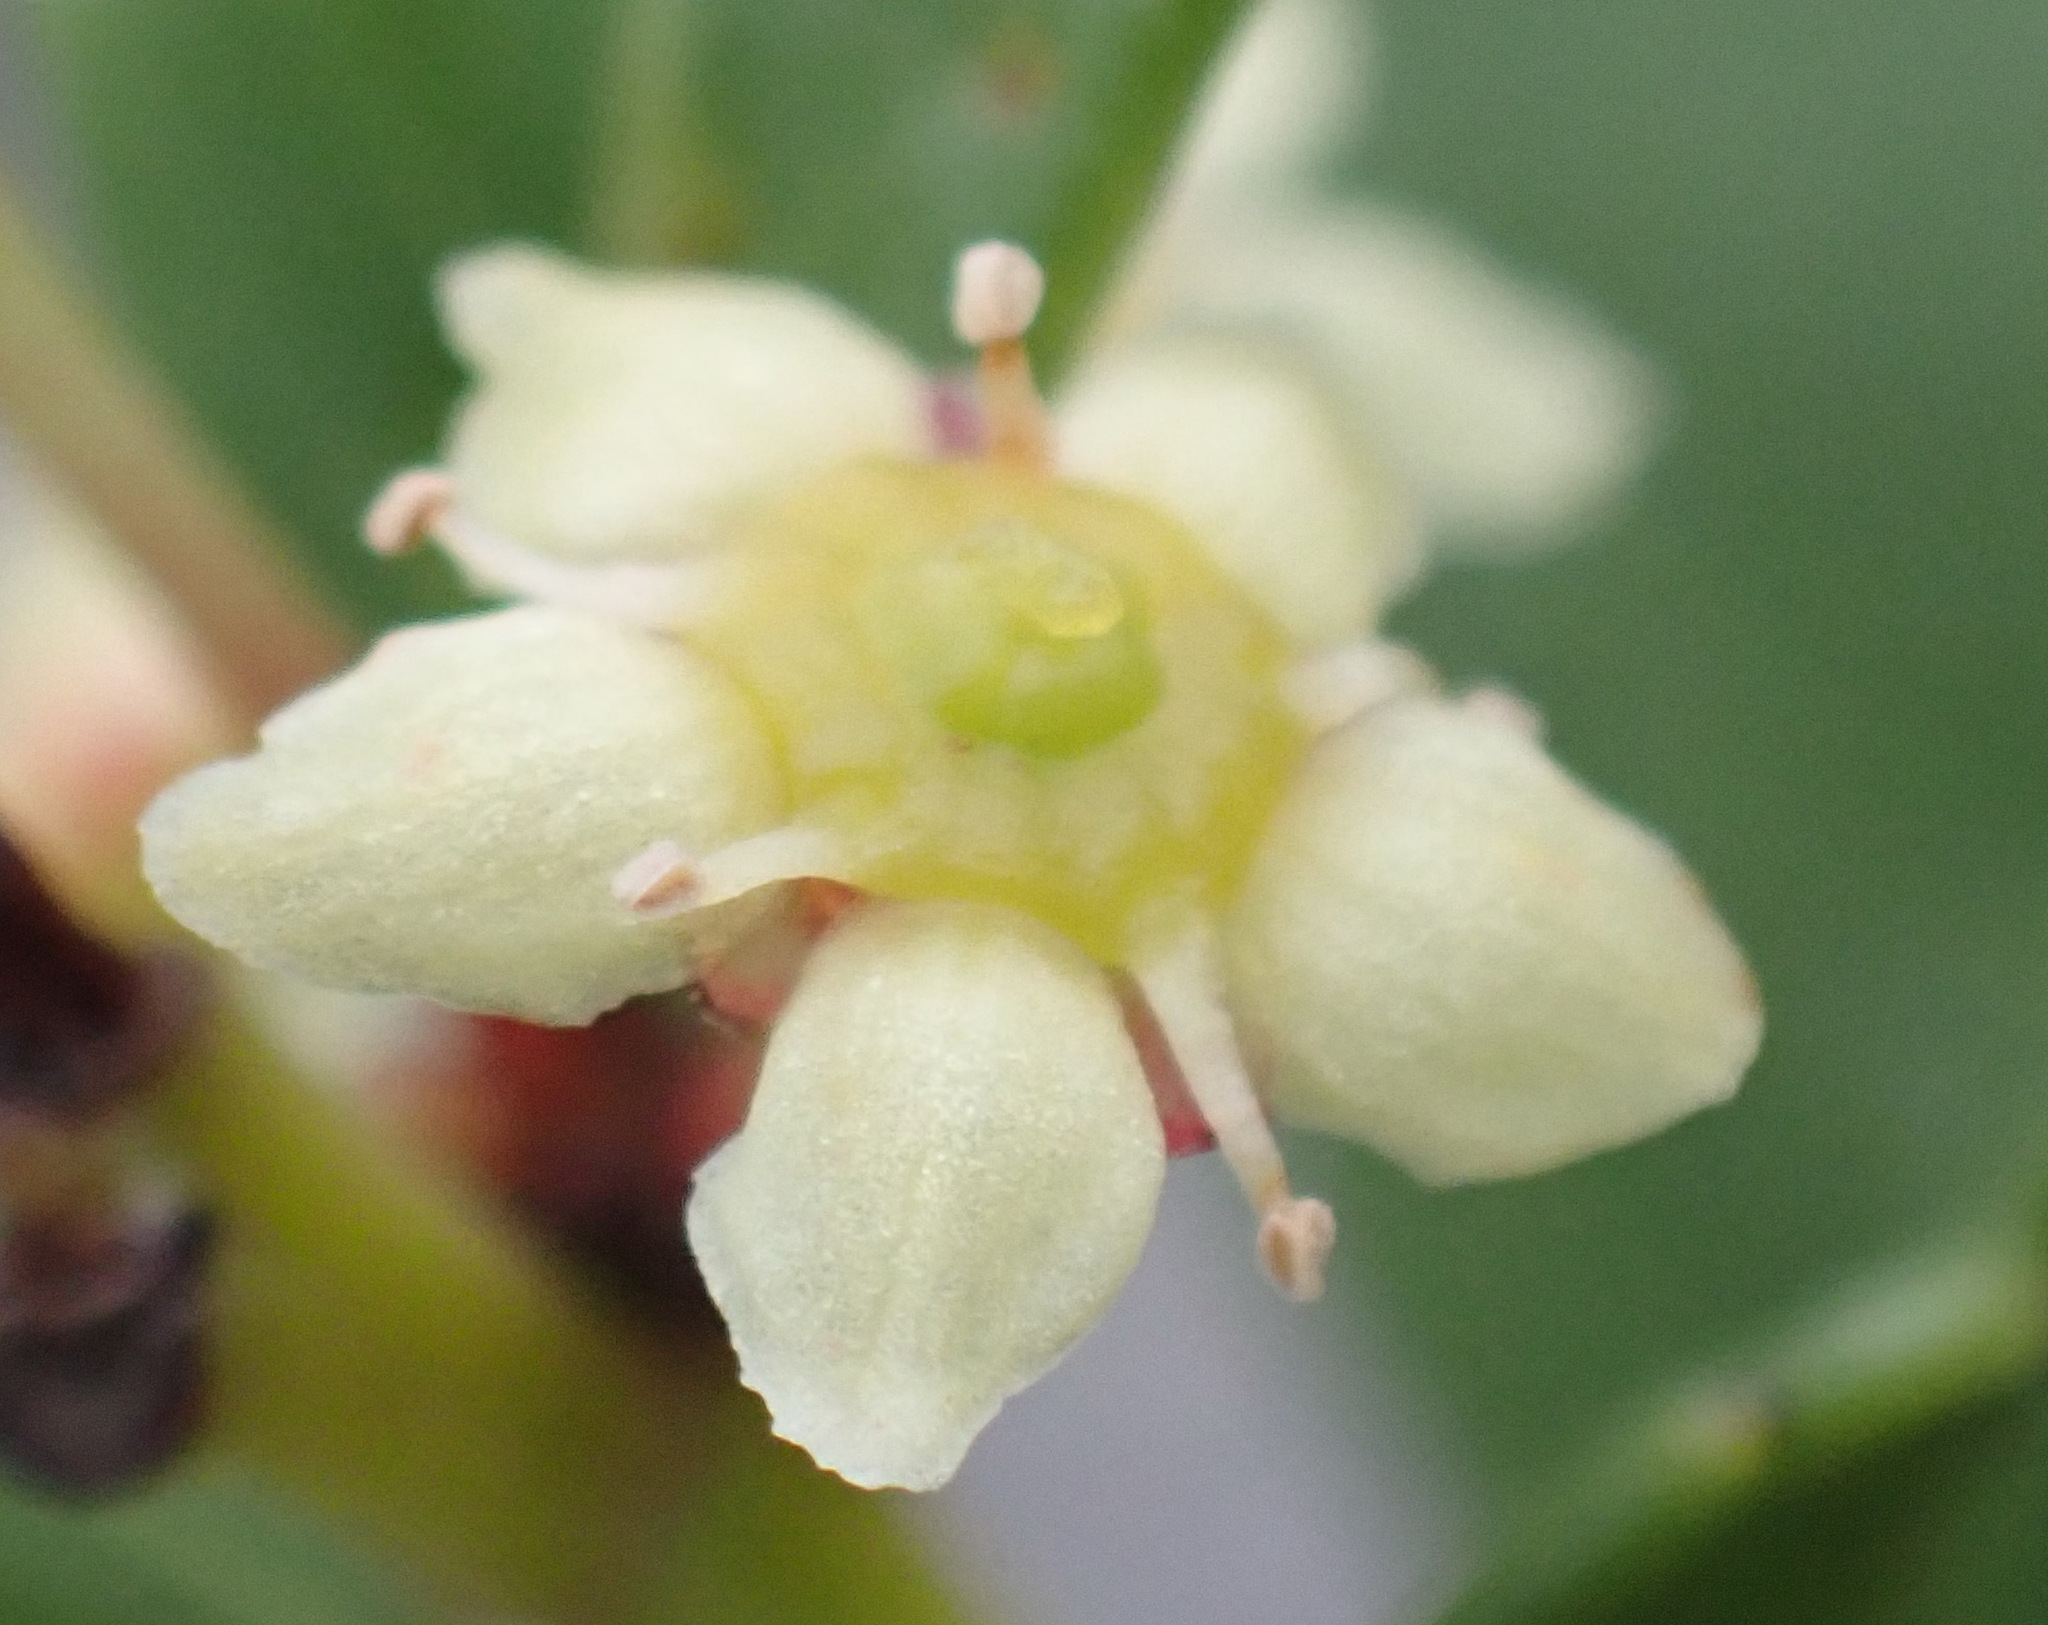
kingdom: Plantae
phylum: Tracheophyta
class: Magnoliopsida
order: Celastrales
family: Celastraceae
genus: Gymnosporia
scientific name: Gymnosporia procumbens
